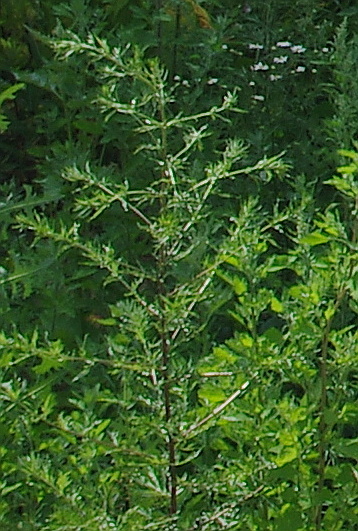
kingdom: Plantae
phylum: Tracheophyta
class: Magnoliopsida
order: Asterales
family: Asteraceae
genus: Artemisia
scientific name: Artemisia vulgaris
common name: Mugwort
